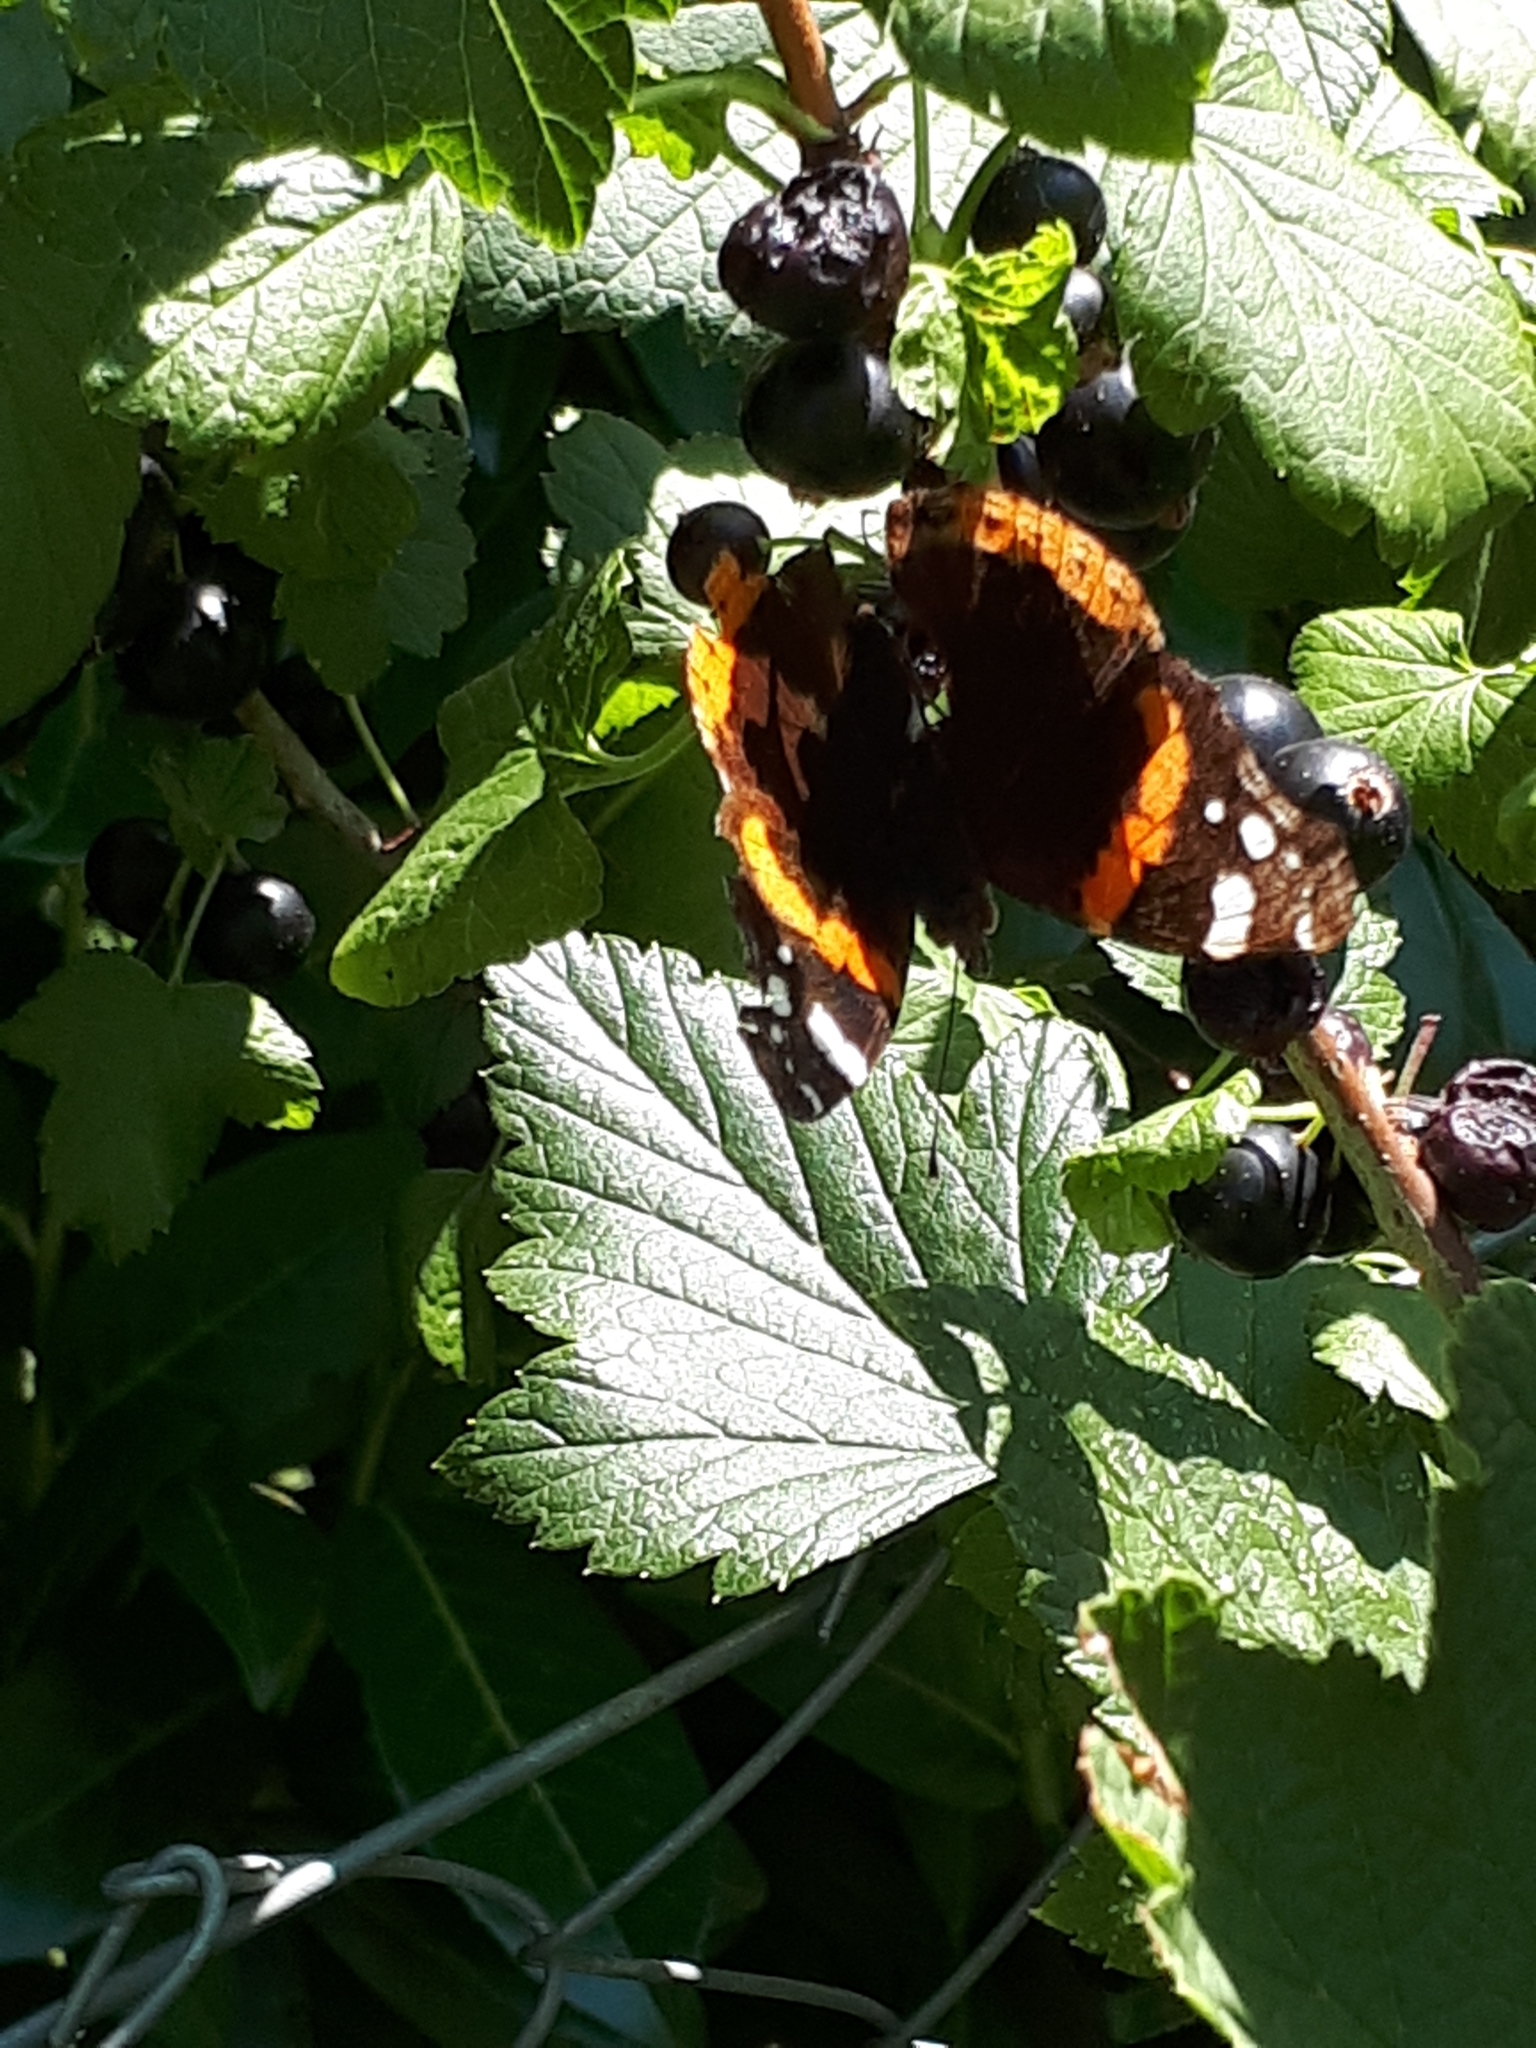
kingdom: Animalia
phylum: Arthropoda
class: Insecta
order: Lepidoptera
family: Nymphalidae
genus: Vanessa
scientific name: Vanessa atalanta
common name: Red admiral
